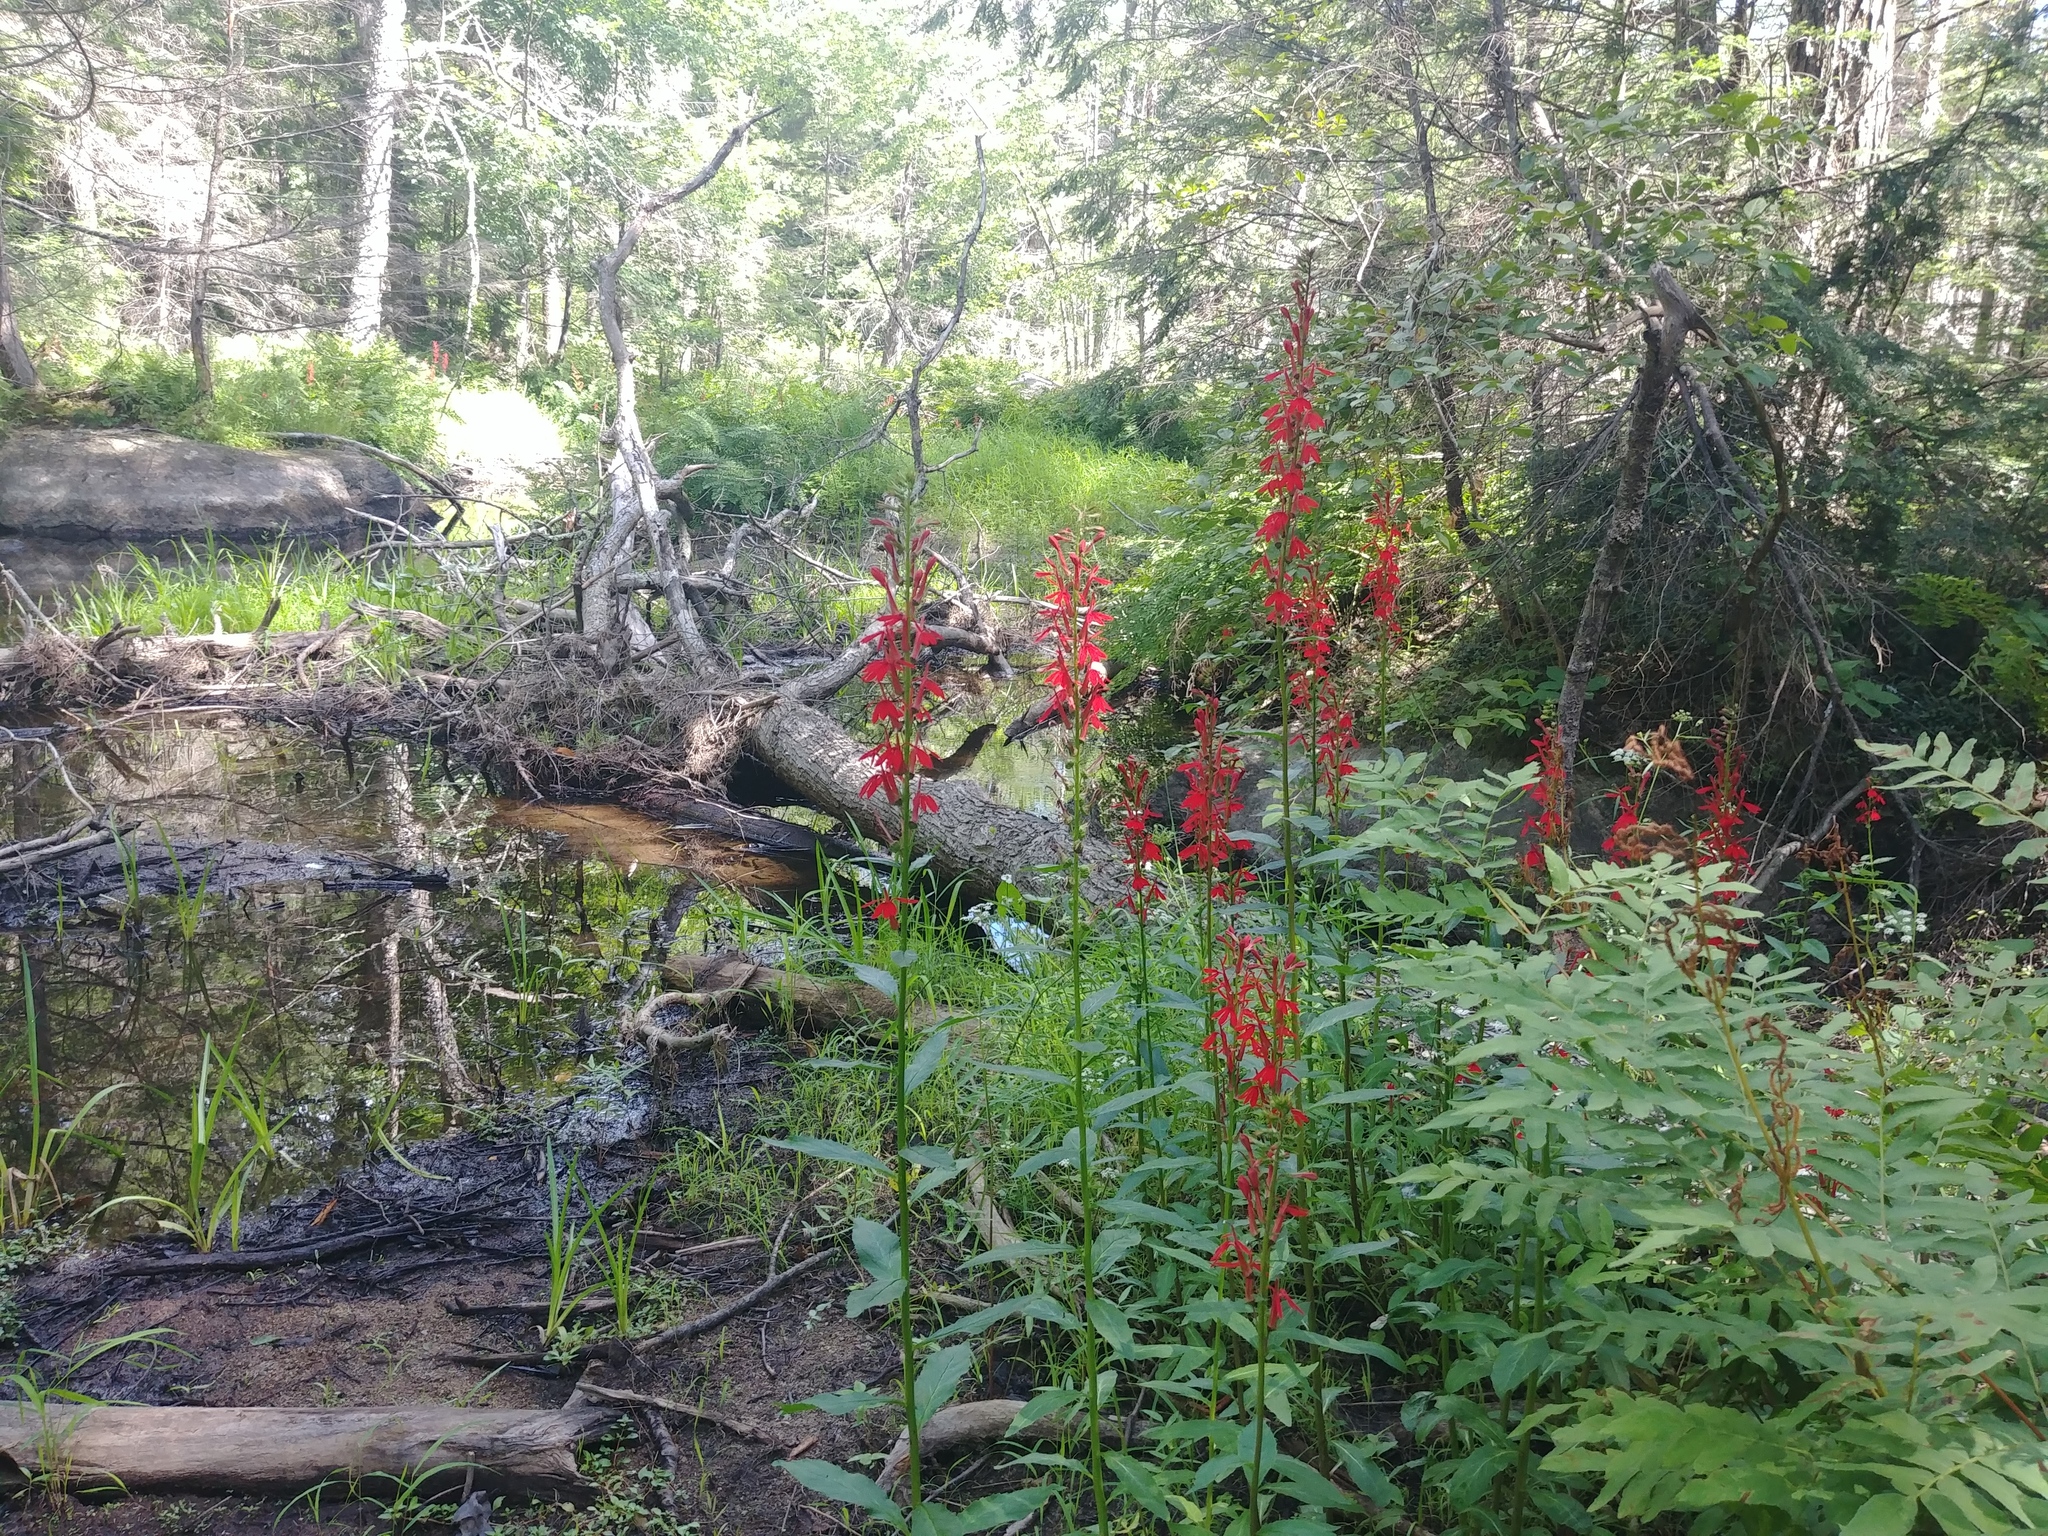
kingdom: Plantae
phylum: Tracheophyta
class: Magnoliopsida
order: Asterales
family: Campanulaceae
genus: Lobelia
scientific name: Lobelia cardinalis
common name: Cardinal flower
